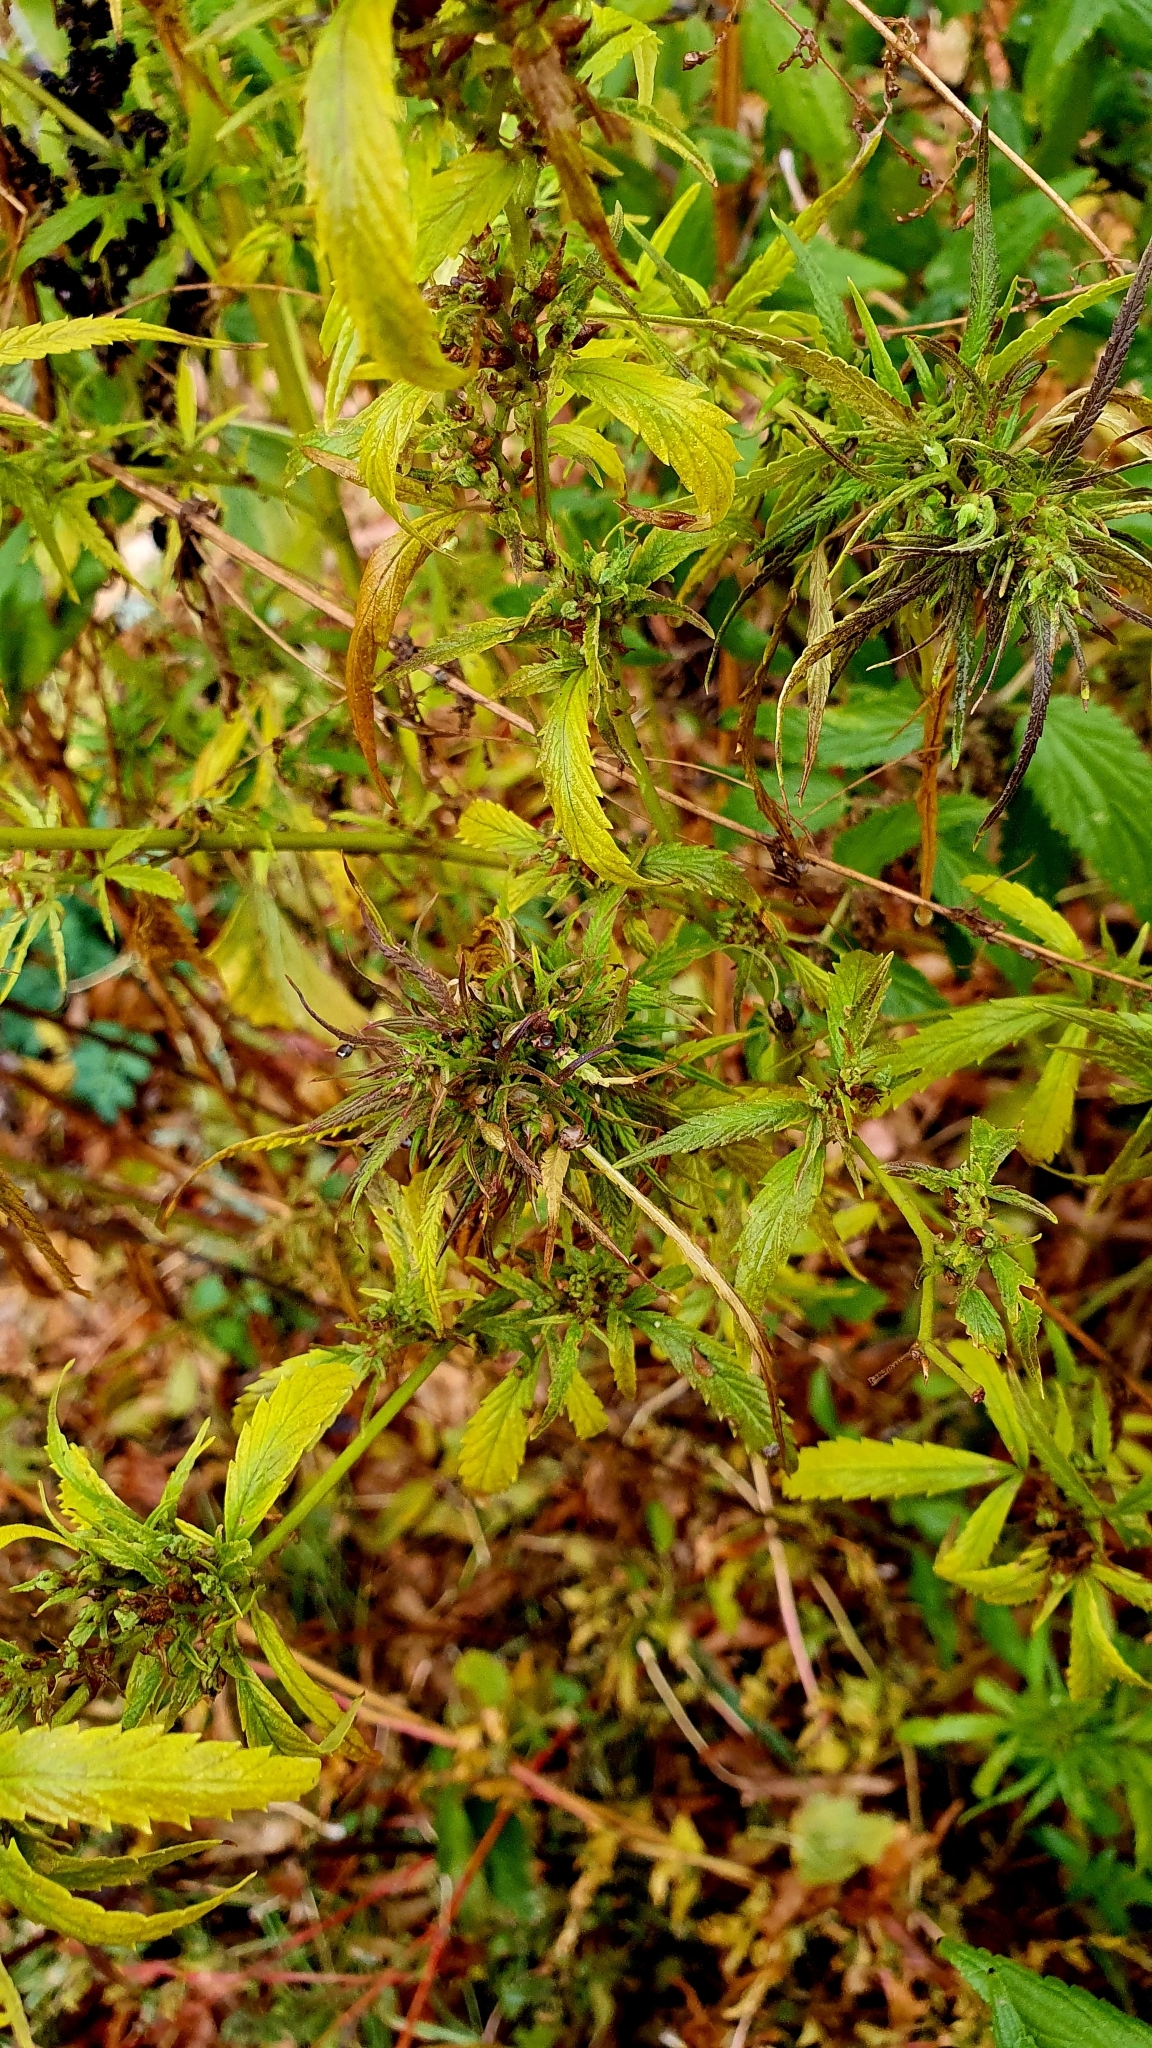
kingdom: Plantae
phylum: Tracheophyta
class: Magnoliopsida
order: Rosales
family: Cannabaceae
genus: Cannabis
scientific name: Cannabis sativa
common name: Hemp
